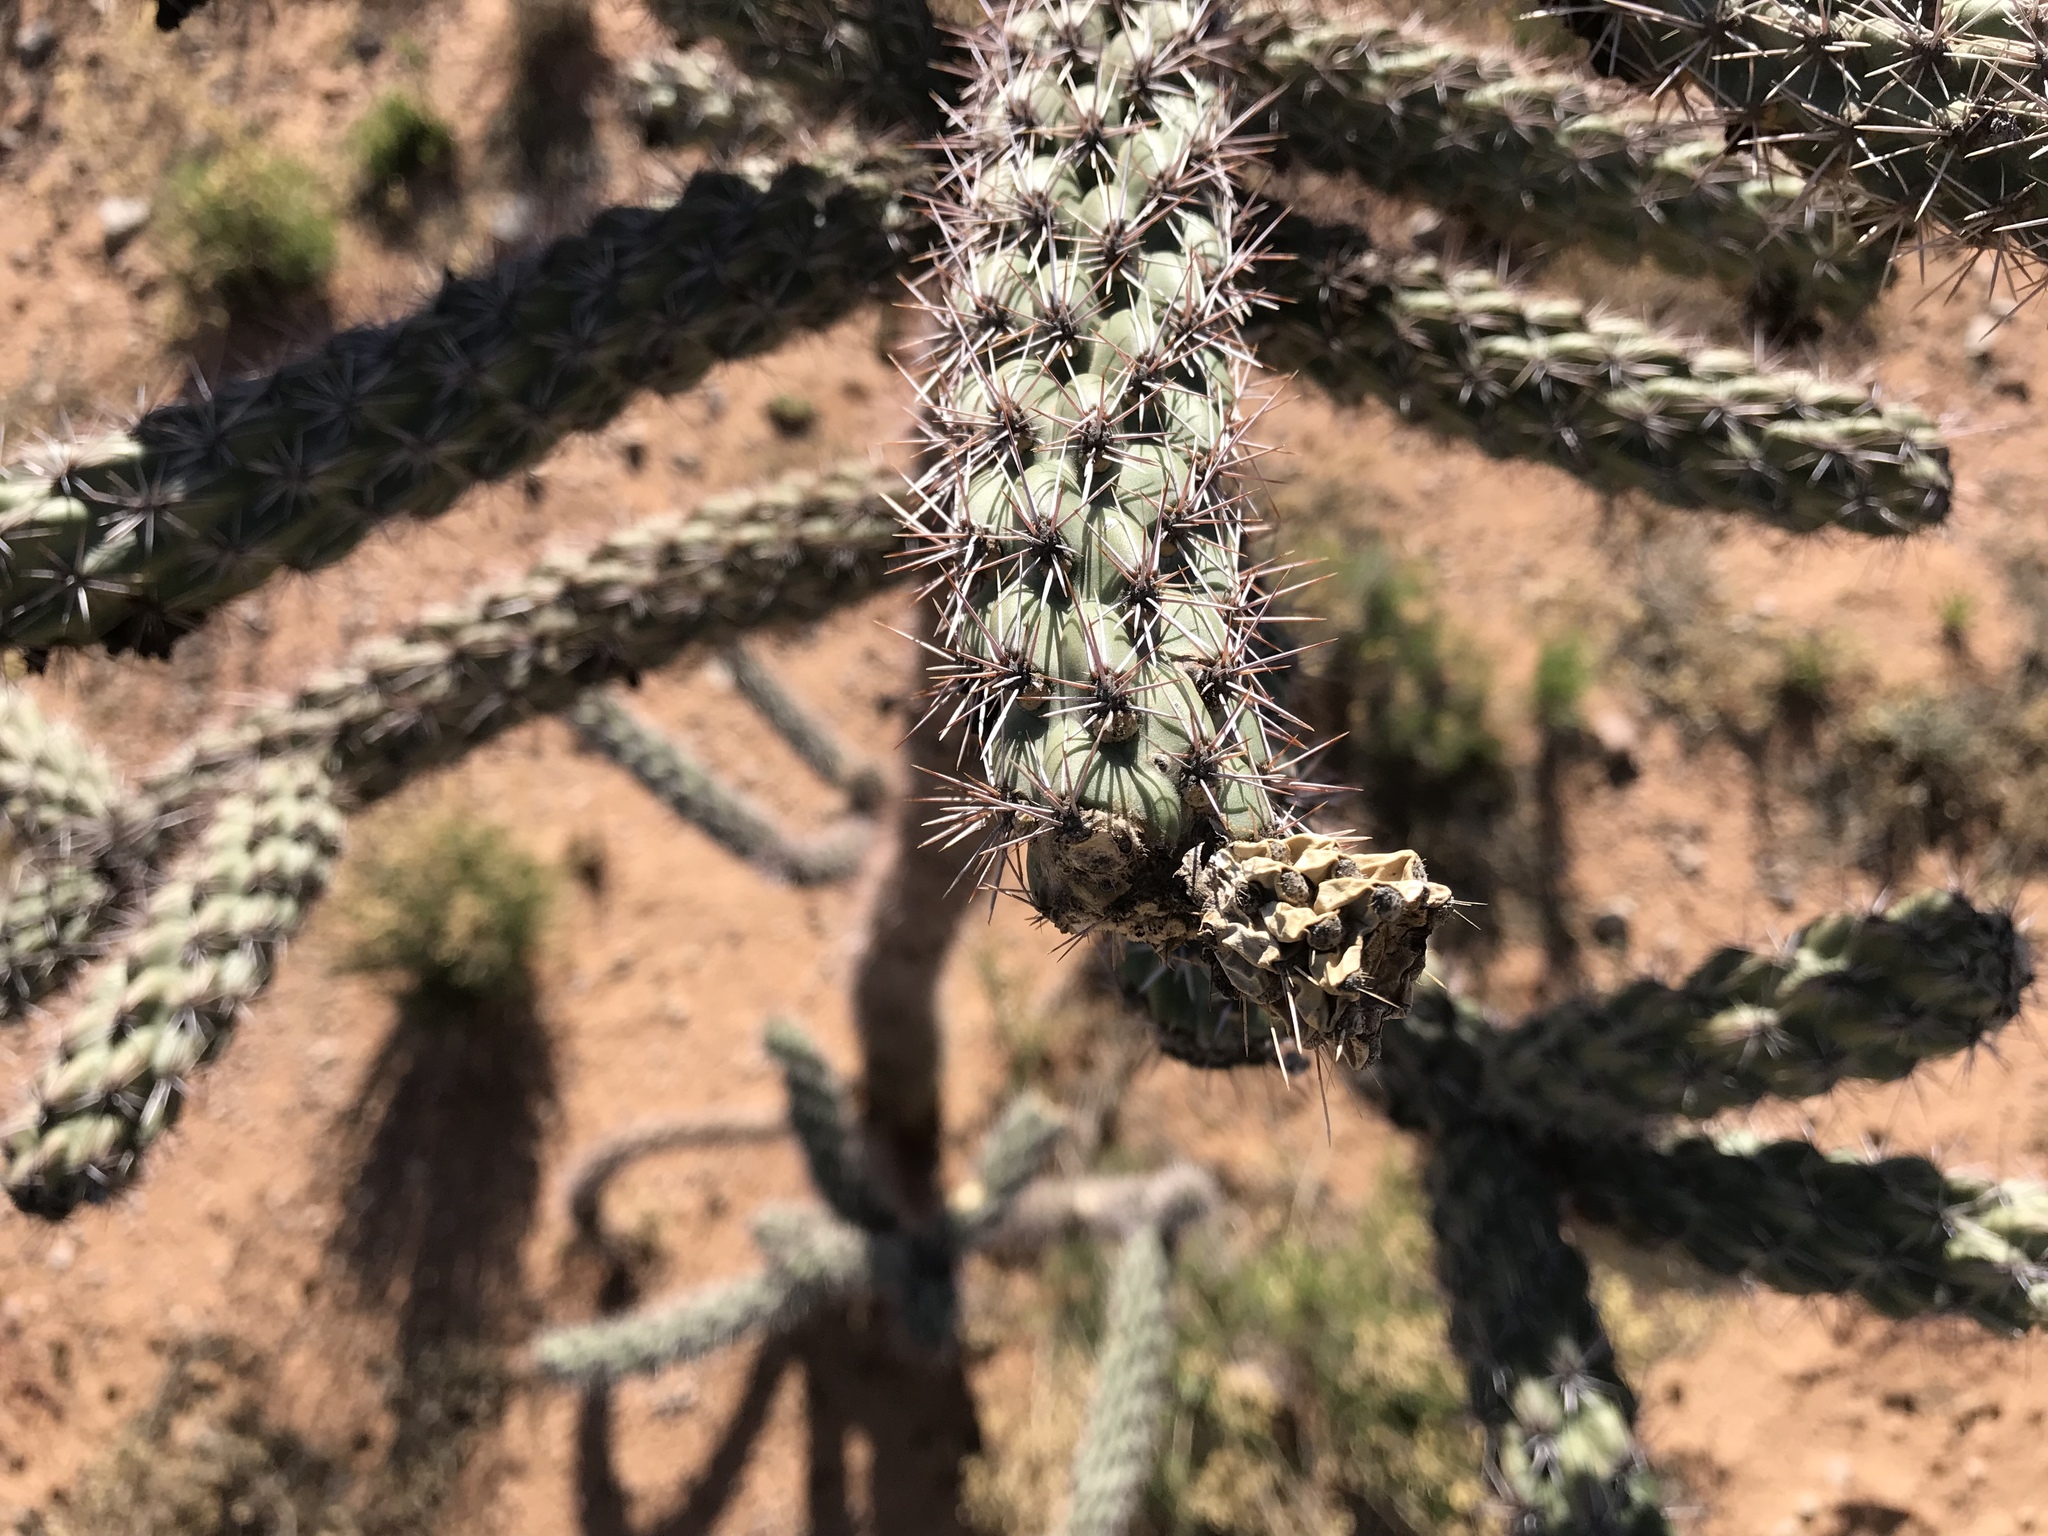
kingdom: Plantae
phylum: Tracheophyta
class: Magnoliopsida
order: Caryophyllales
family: Cactaceae
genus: Cylindropuntia
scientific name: Cylindropuntia imbricata
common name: Candelabrum cactus
